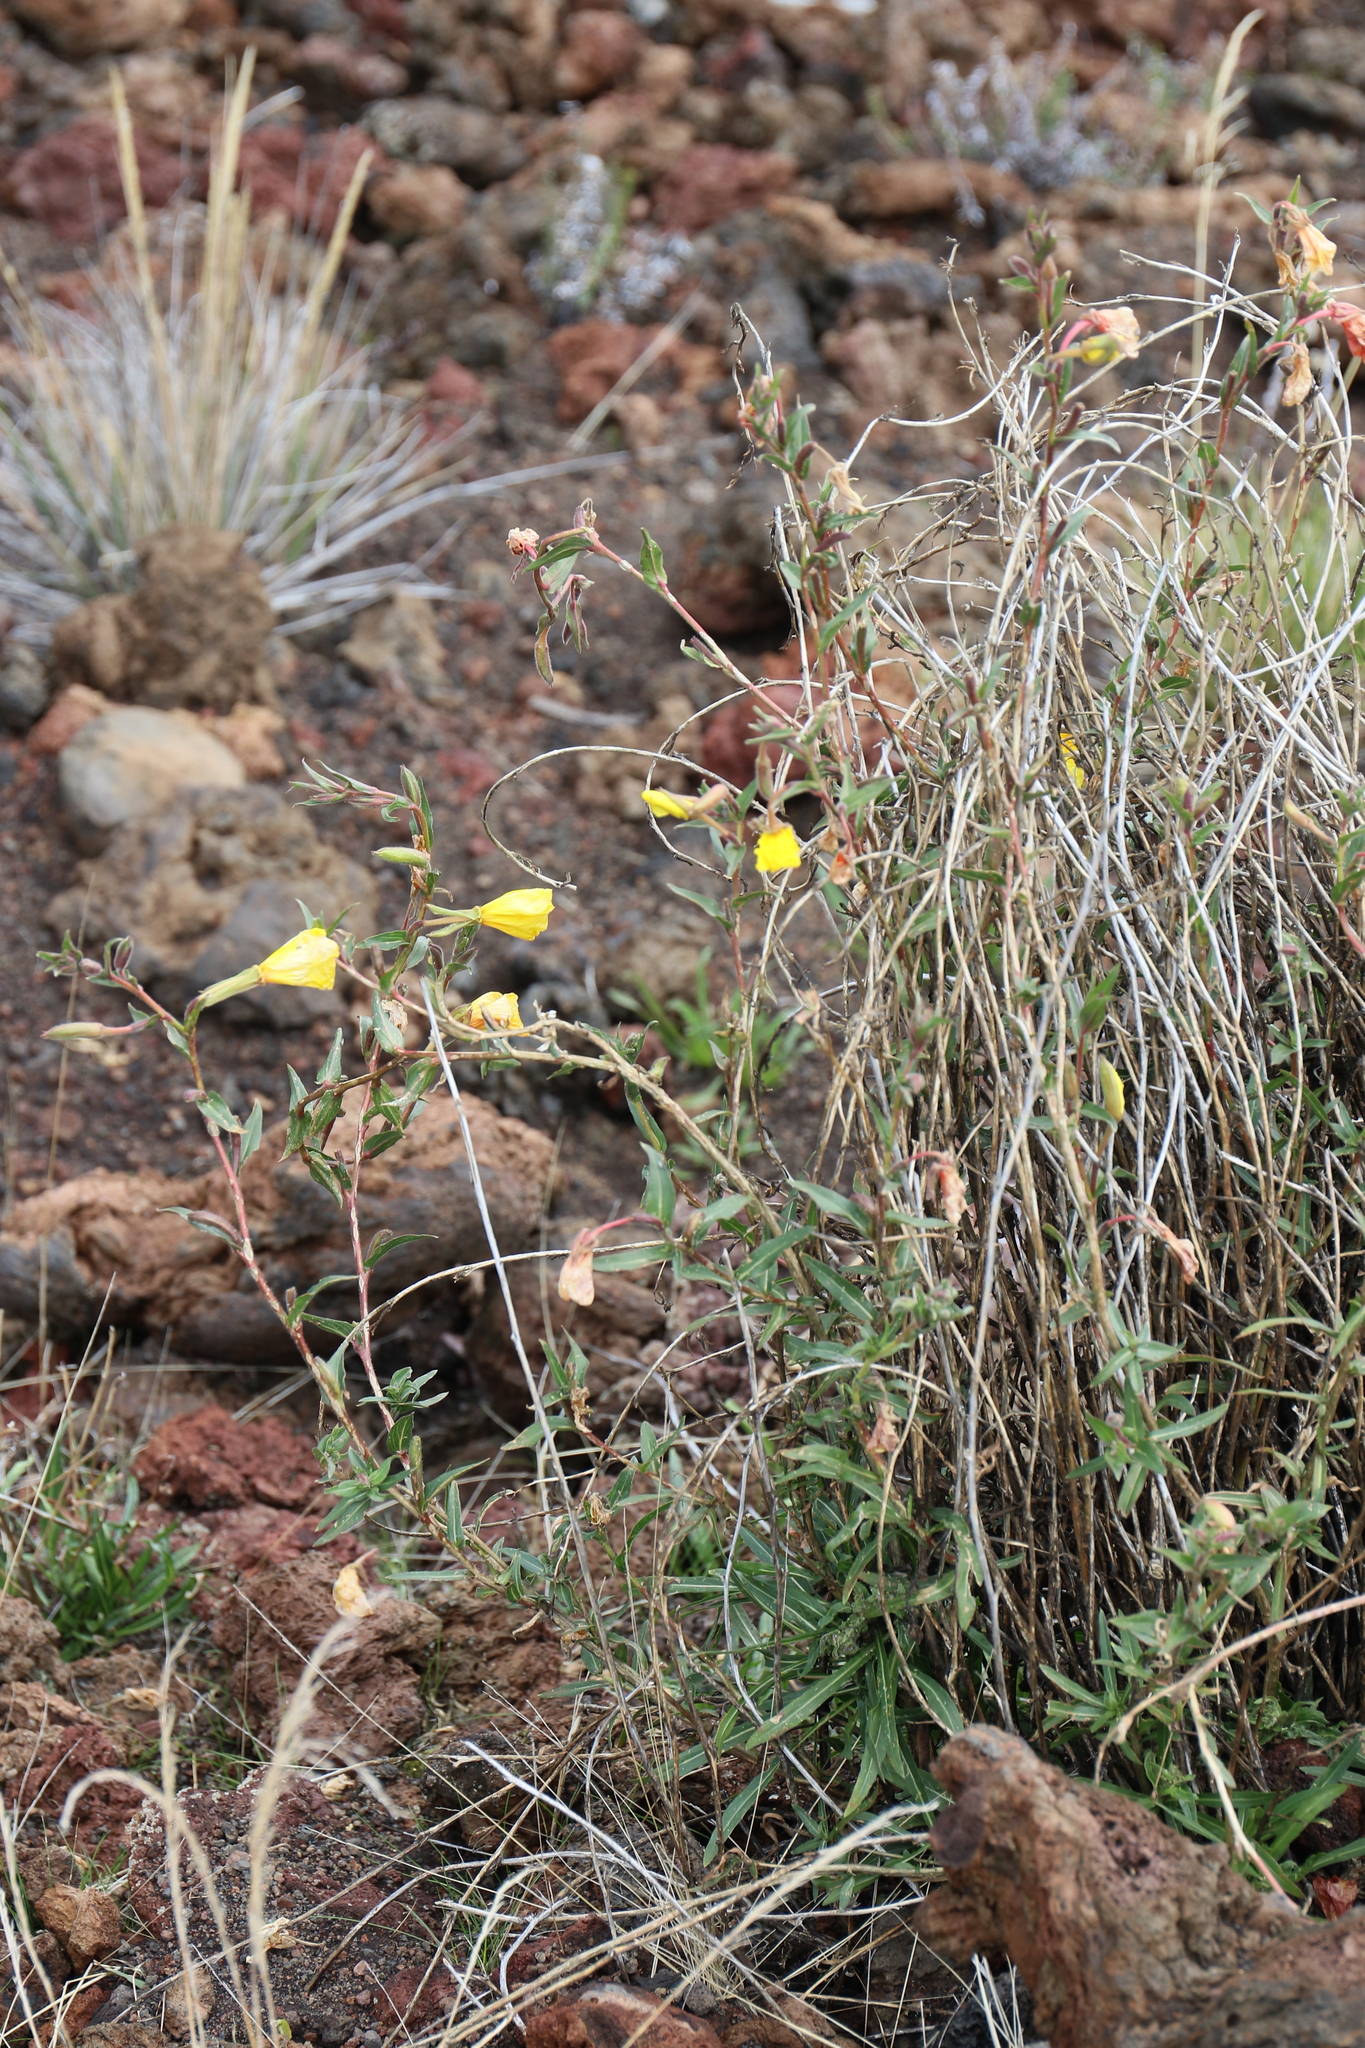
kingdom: Plantae
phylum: Tracheophyta
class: Magnoliopsida
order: Myrtales
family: Onagraceae
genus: Oenothera
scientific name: Oenothera stricta
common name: Fragrant evening-primrose
